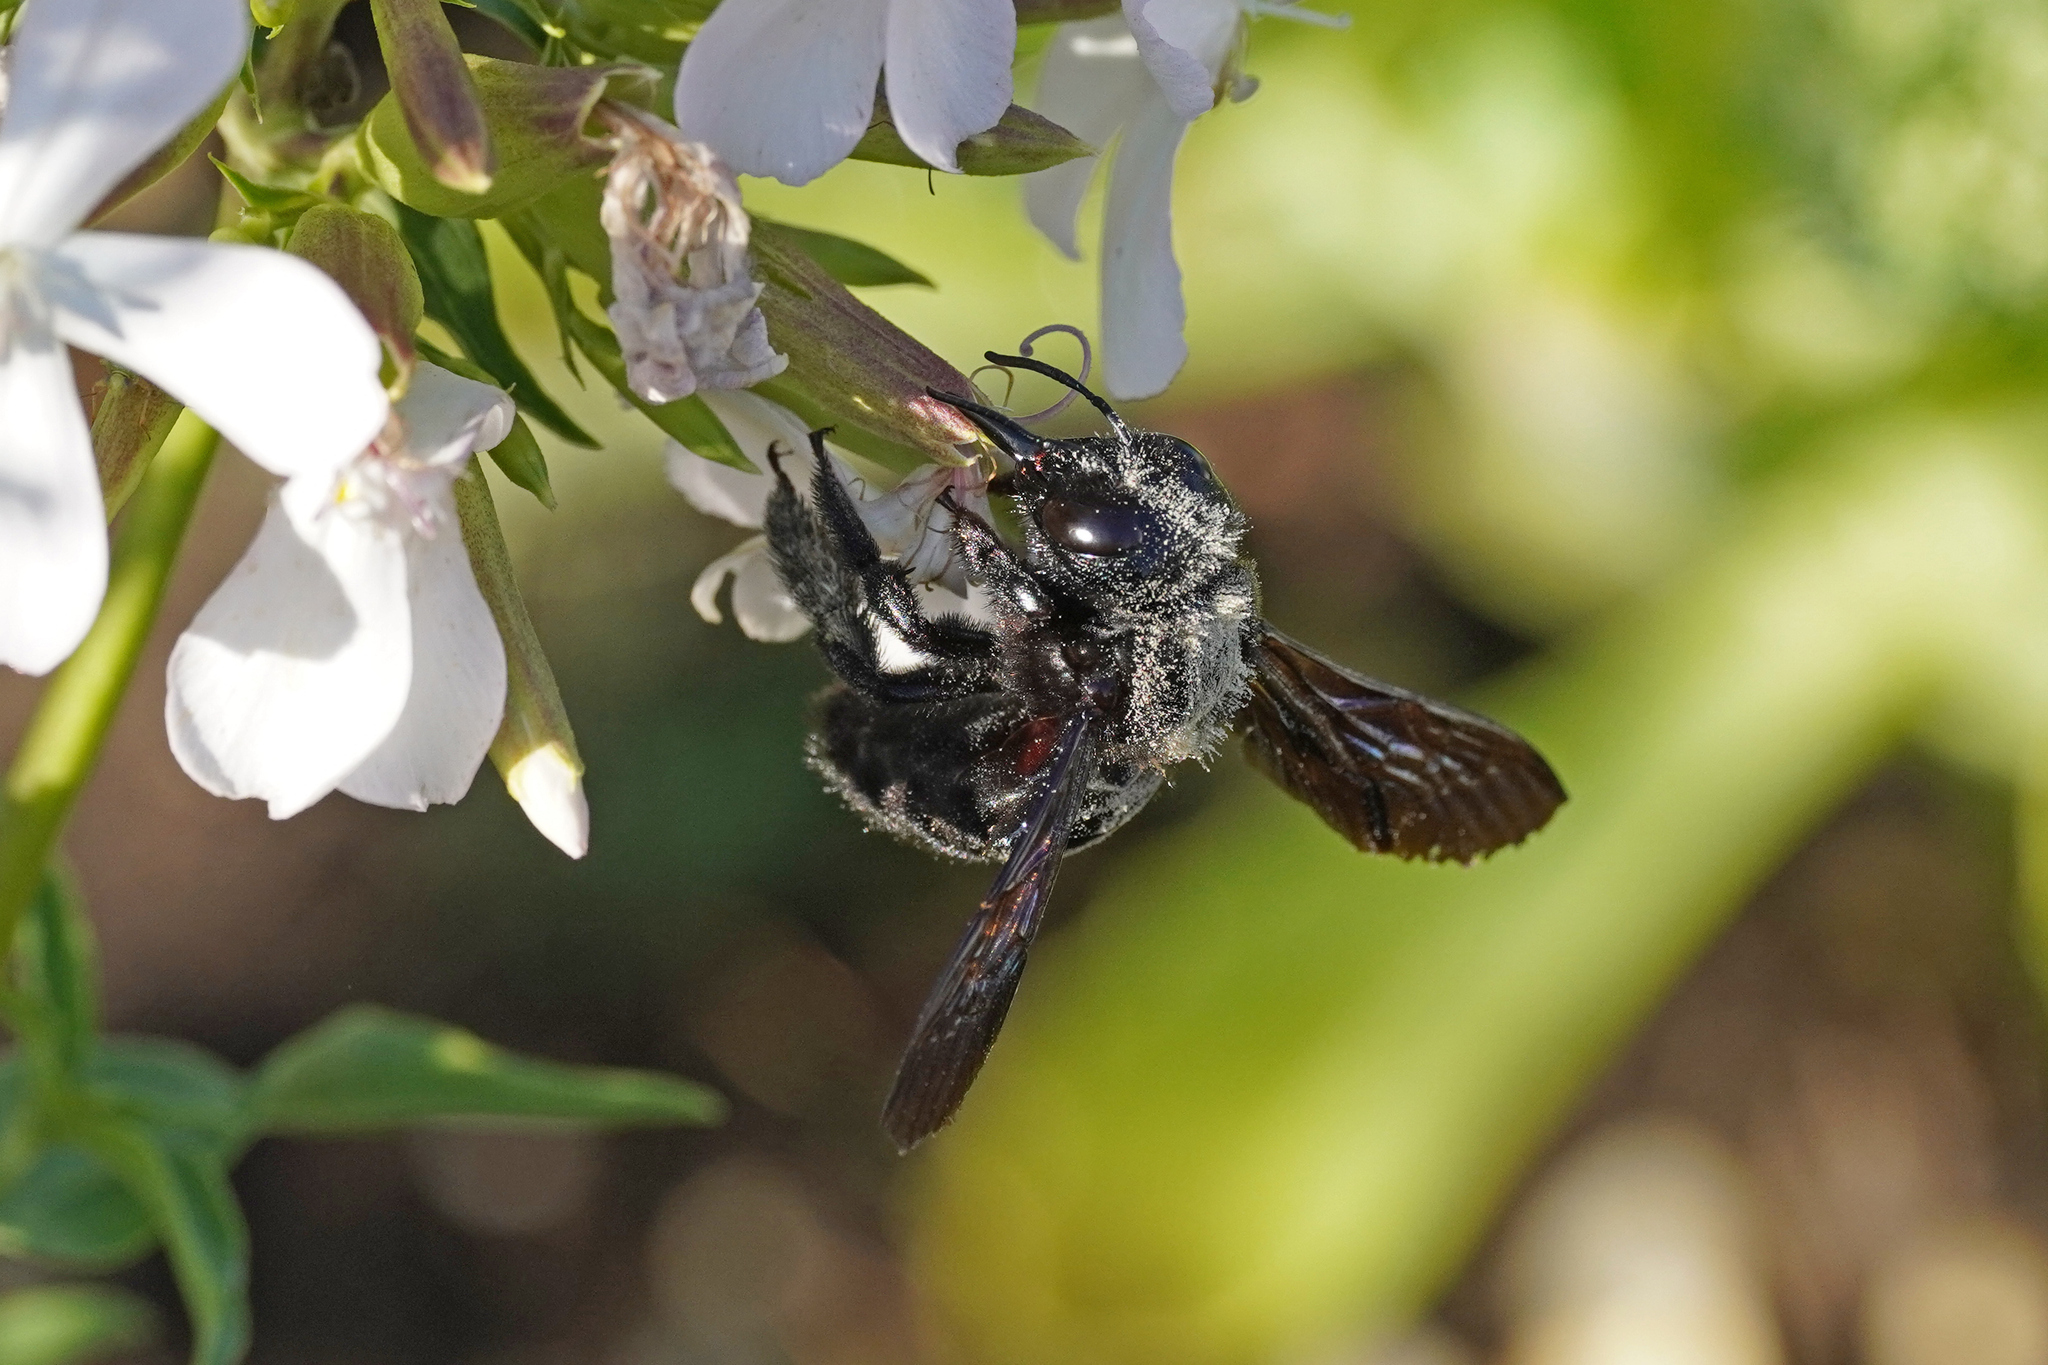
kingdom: Animalia
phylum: Arthropoda
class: Insecta
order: Hymenoptera
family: Apidae
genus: Xylocopa
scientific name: Xylocopa violacea
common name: Violet carpenter bee
